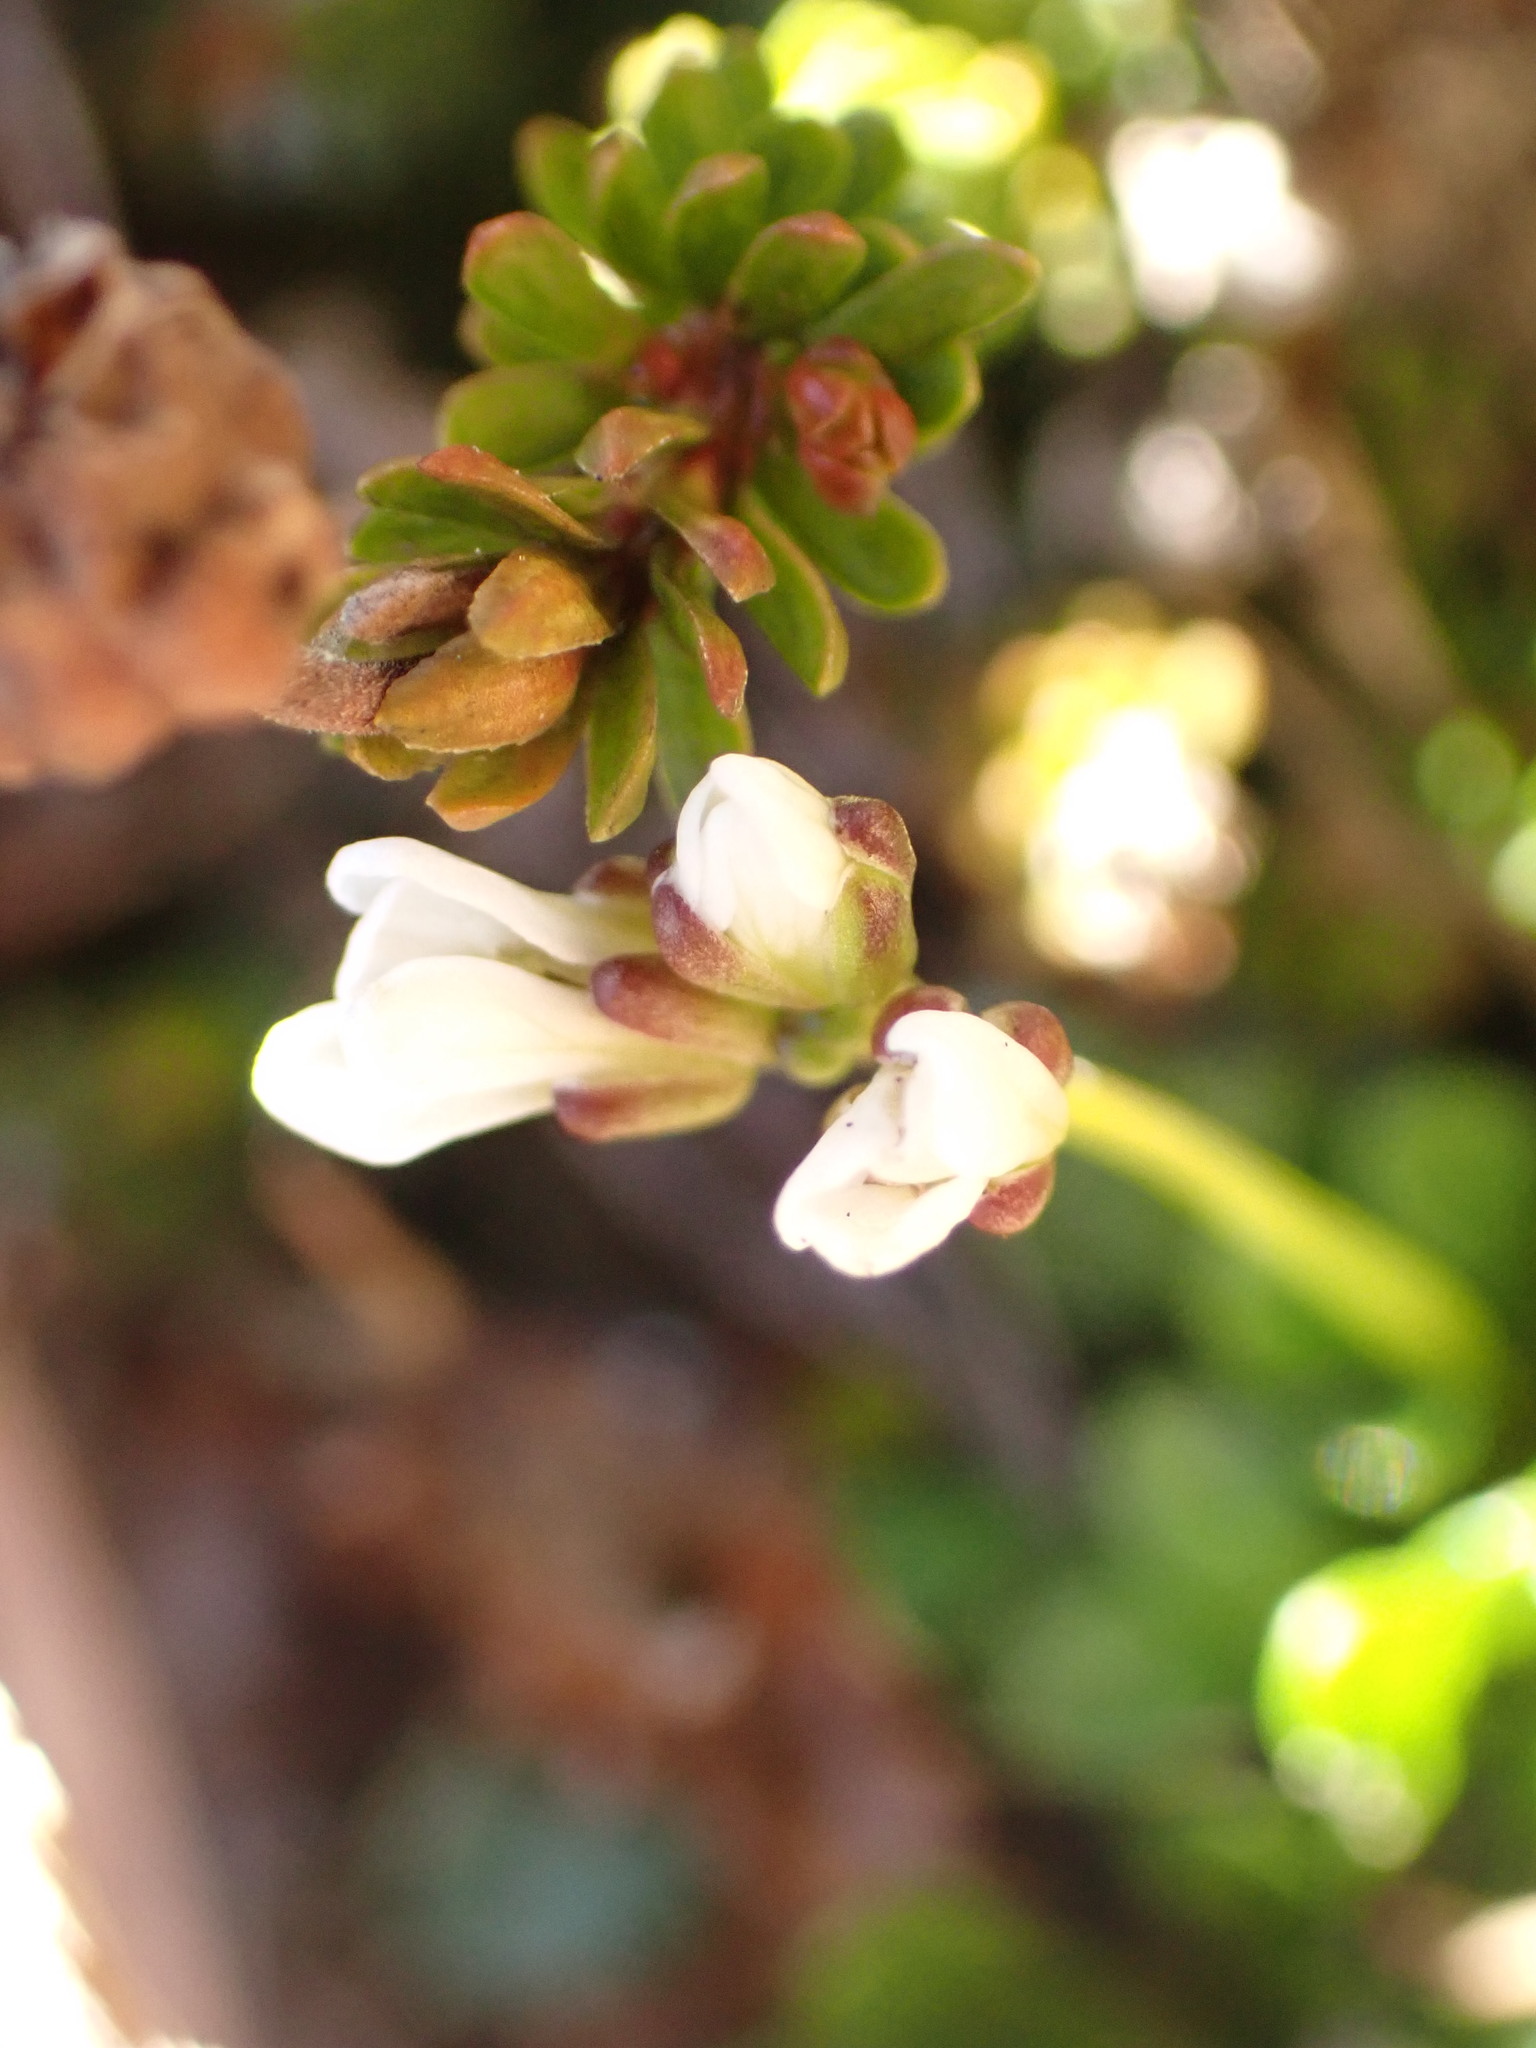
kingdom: Plantae
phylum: Tracheophyta
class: Magnoliopsida
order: Brassicales
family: Brassicaceae
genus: Cardamine
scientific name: Cardamine bellidifolia
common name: Alpine bittercress
